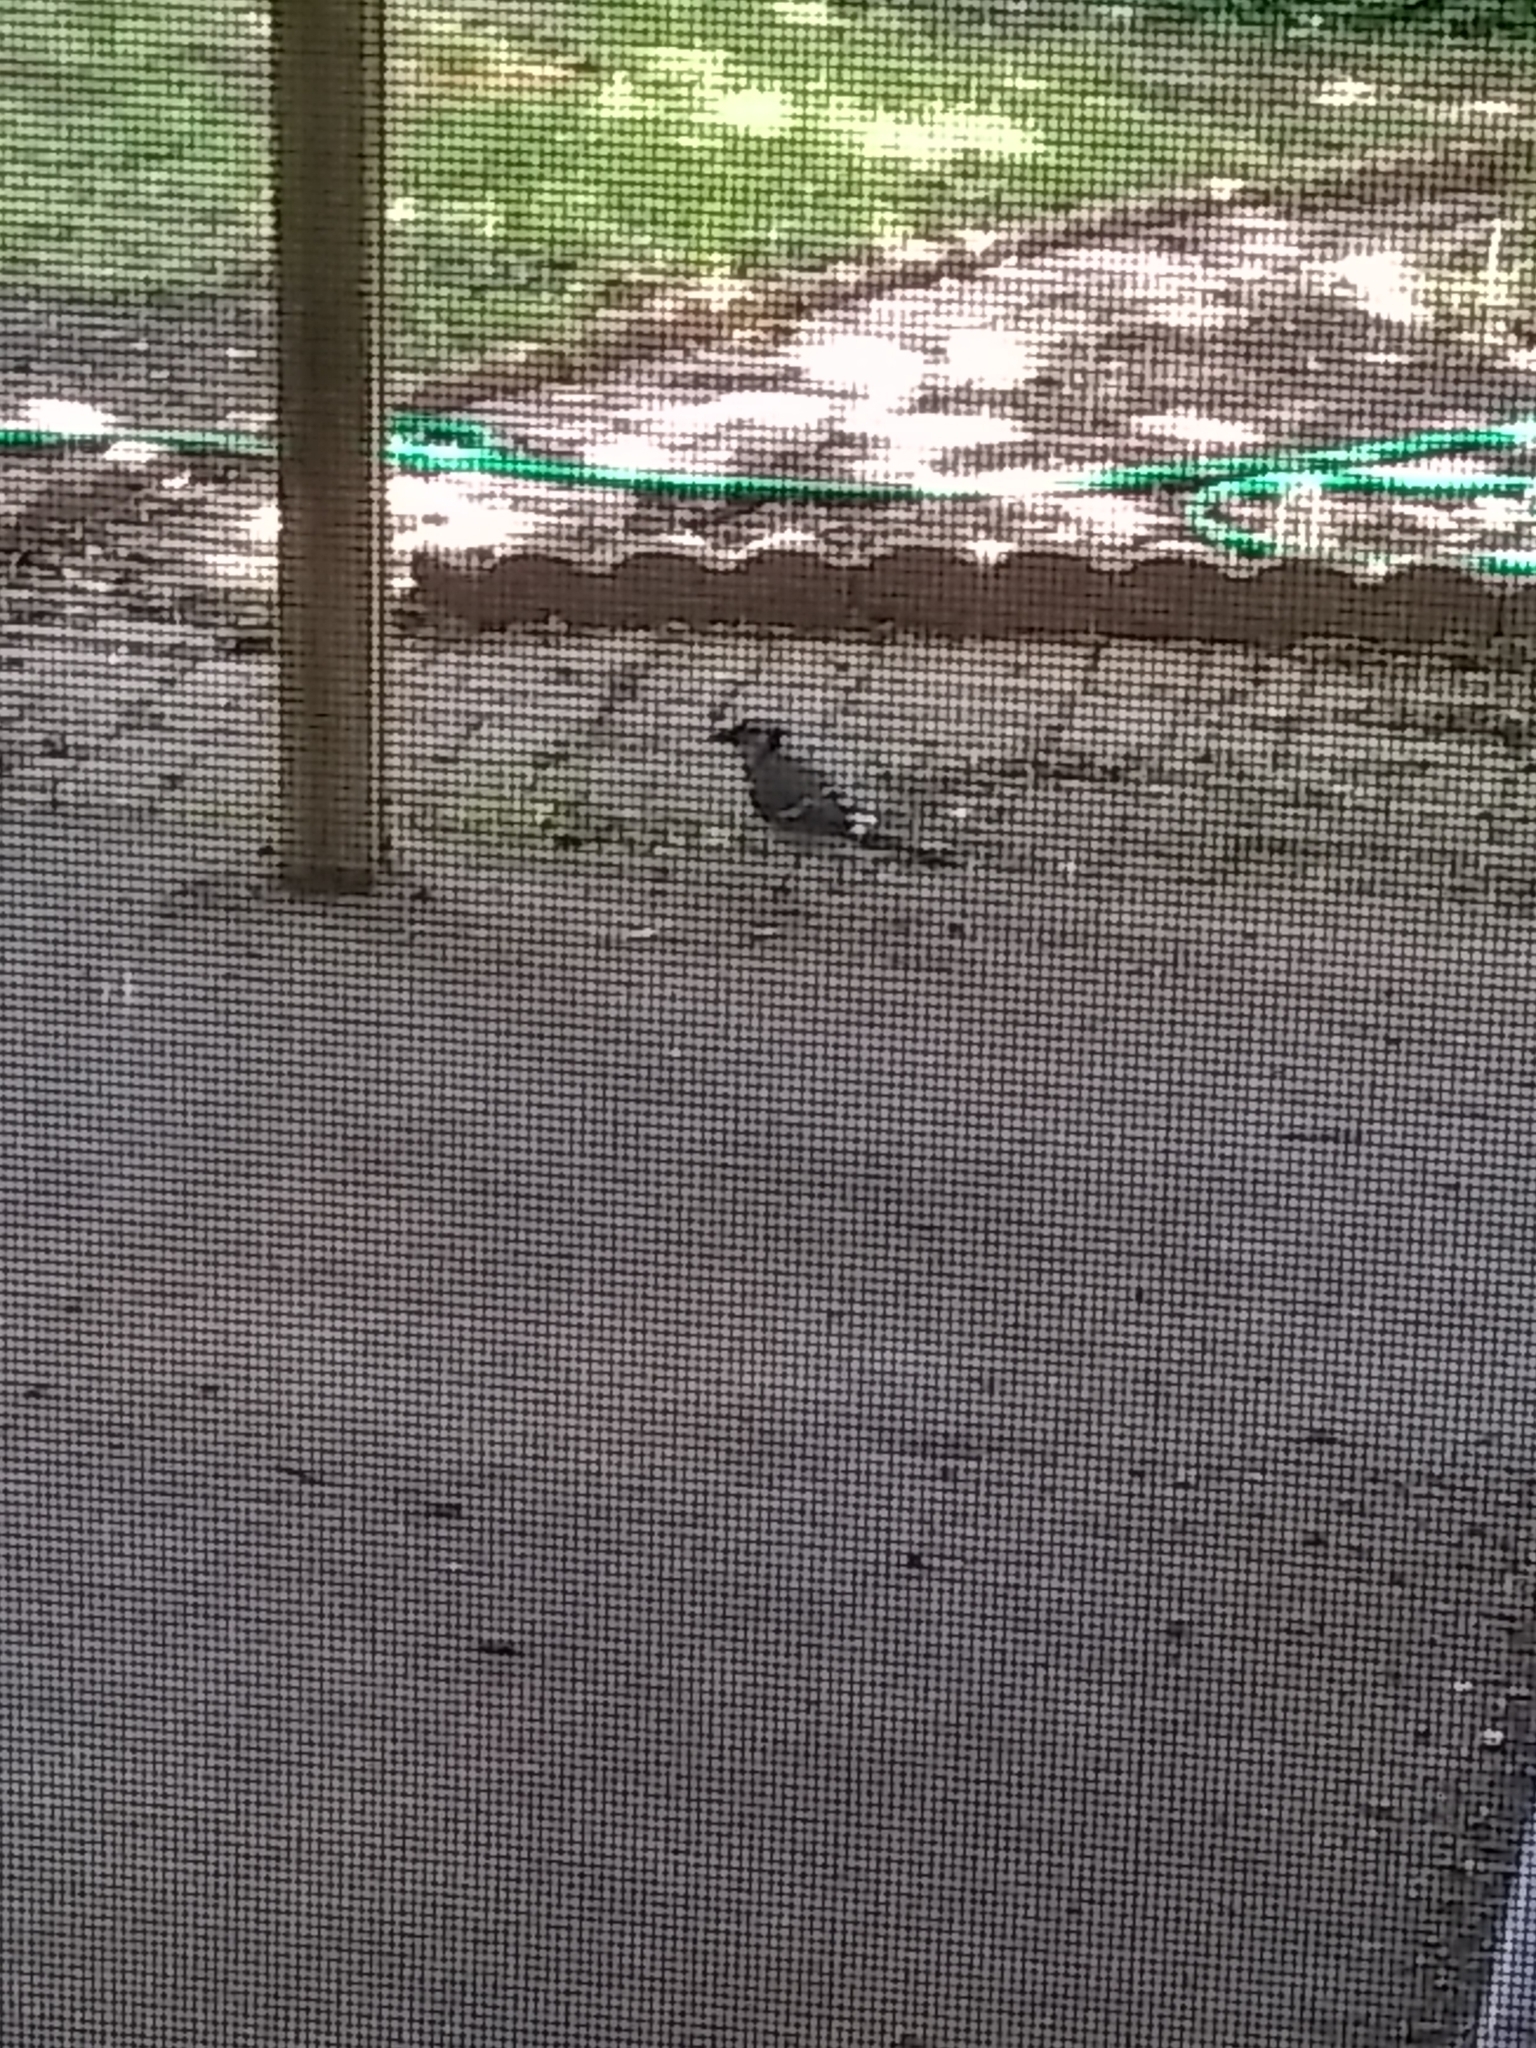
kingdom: Animalia
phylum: Chordata
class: Aves
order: Passeriformes
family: Corvidae
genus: Cyanocitta
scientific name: Cyanocitta cristata
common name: Blue jay
